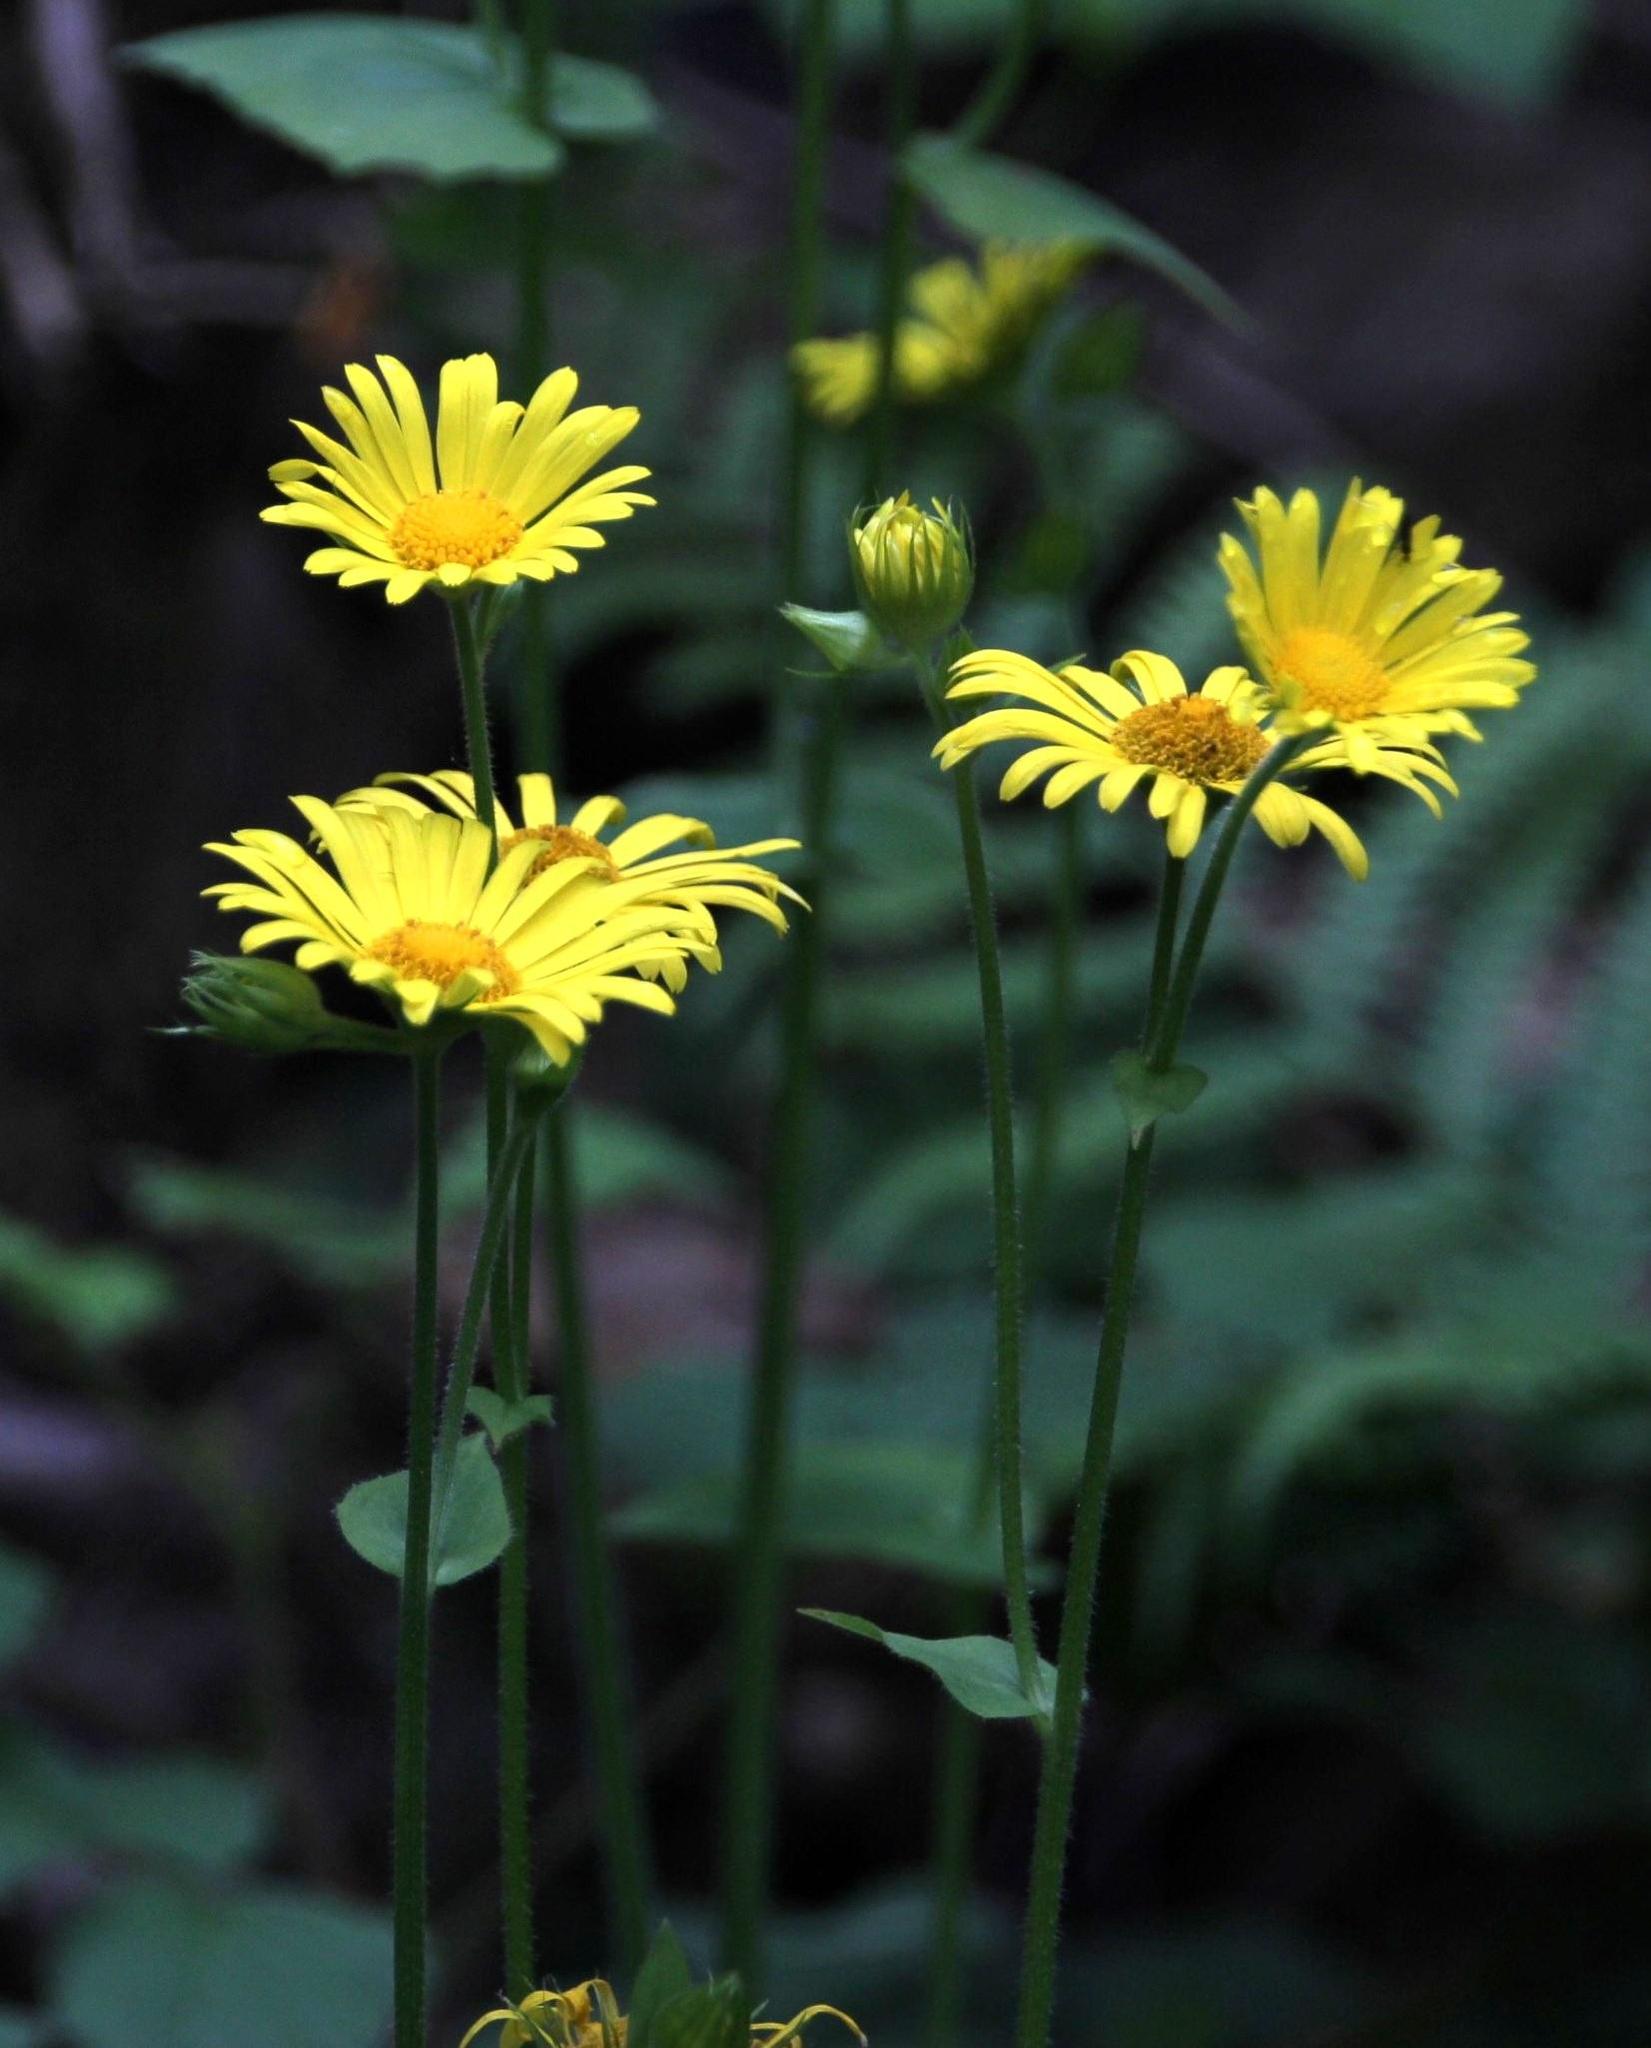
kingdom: Plantae
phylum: Tracheophyta
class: Magnoliopsida
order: Asterales
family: Asteraceae
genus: Doronicum
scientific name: Doronicum pardalianches
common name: Leopard's-bane
